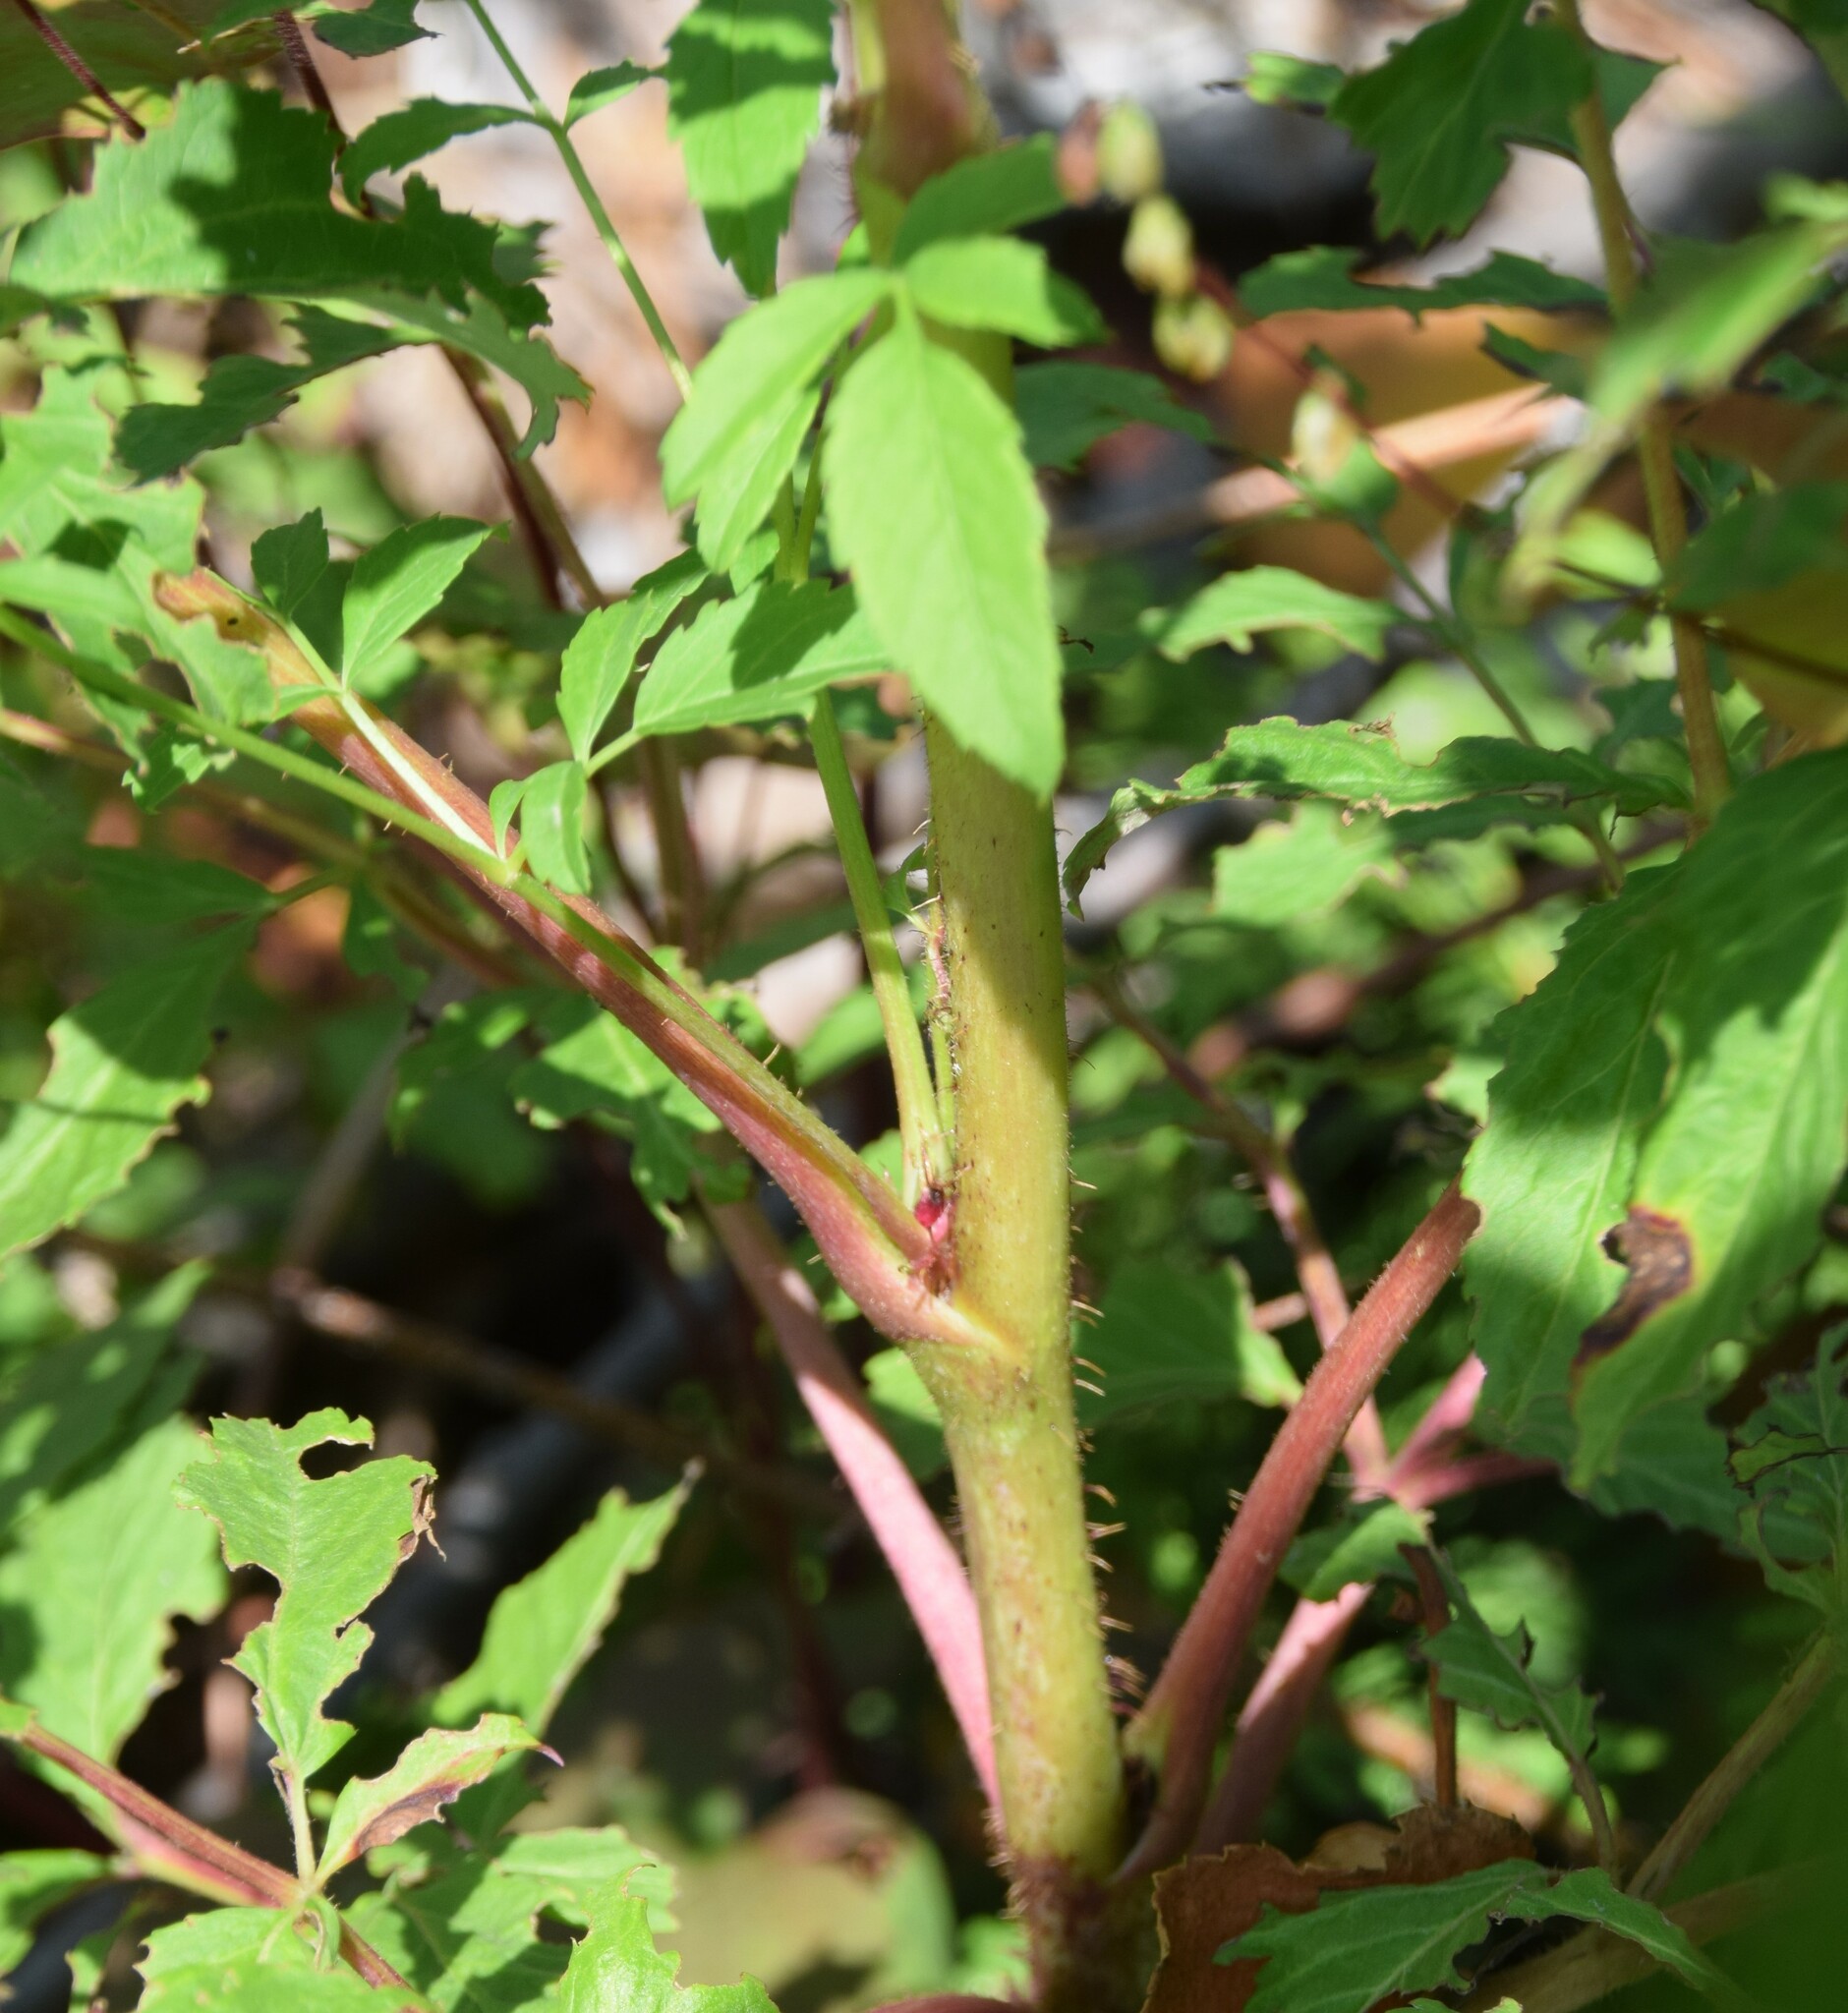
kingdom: Plantae
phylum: Tracheophyta
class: Magnoliopsida
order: Apiales
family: Araliaceae
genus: Aralia
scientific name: Aralia hispida
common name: Bristly sarsaparilla
